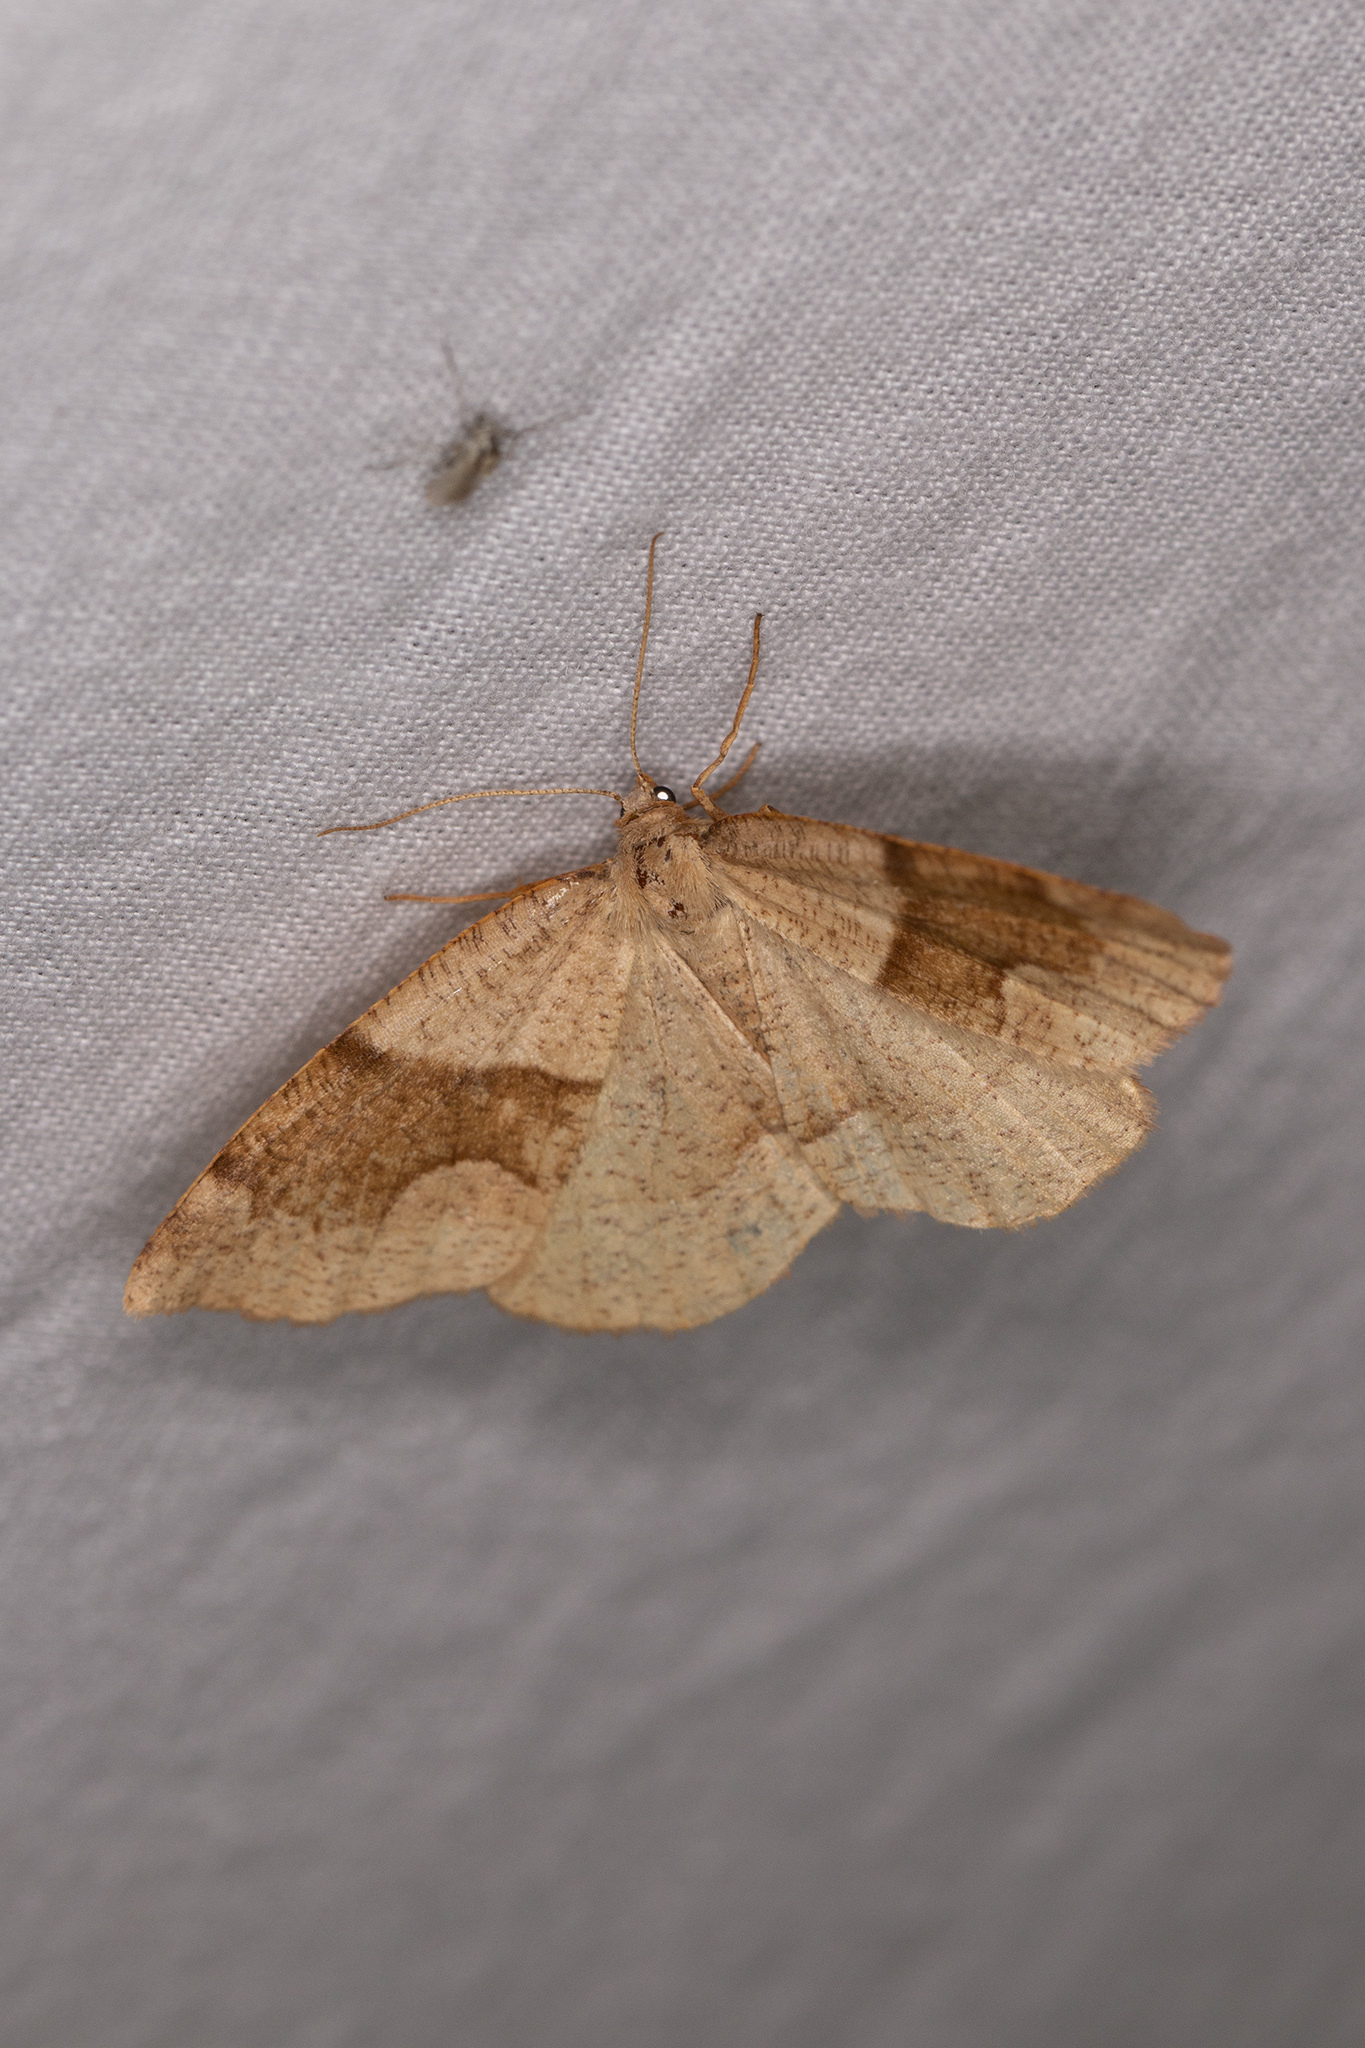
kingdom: Animalia
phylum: Arthropoda
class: Insecta
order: Lepidoptera
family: Geometridae
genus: Plagodis
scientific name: Plagodis pulveraria
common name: Barred umber
